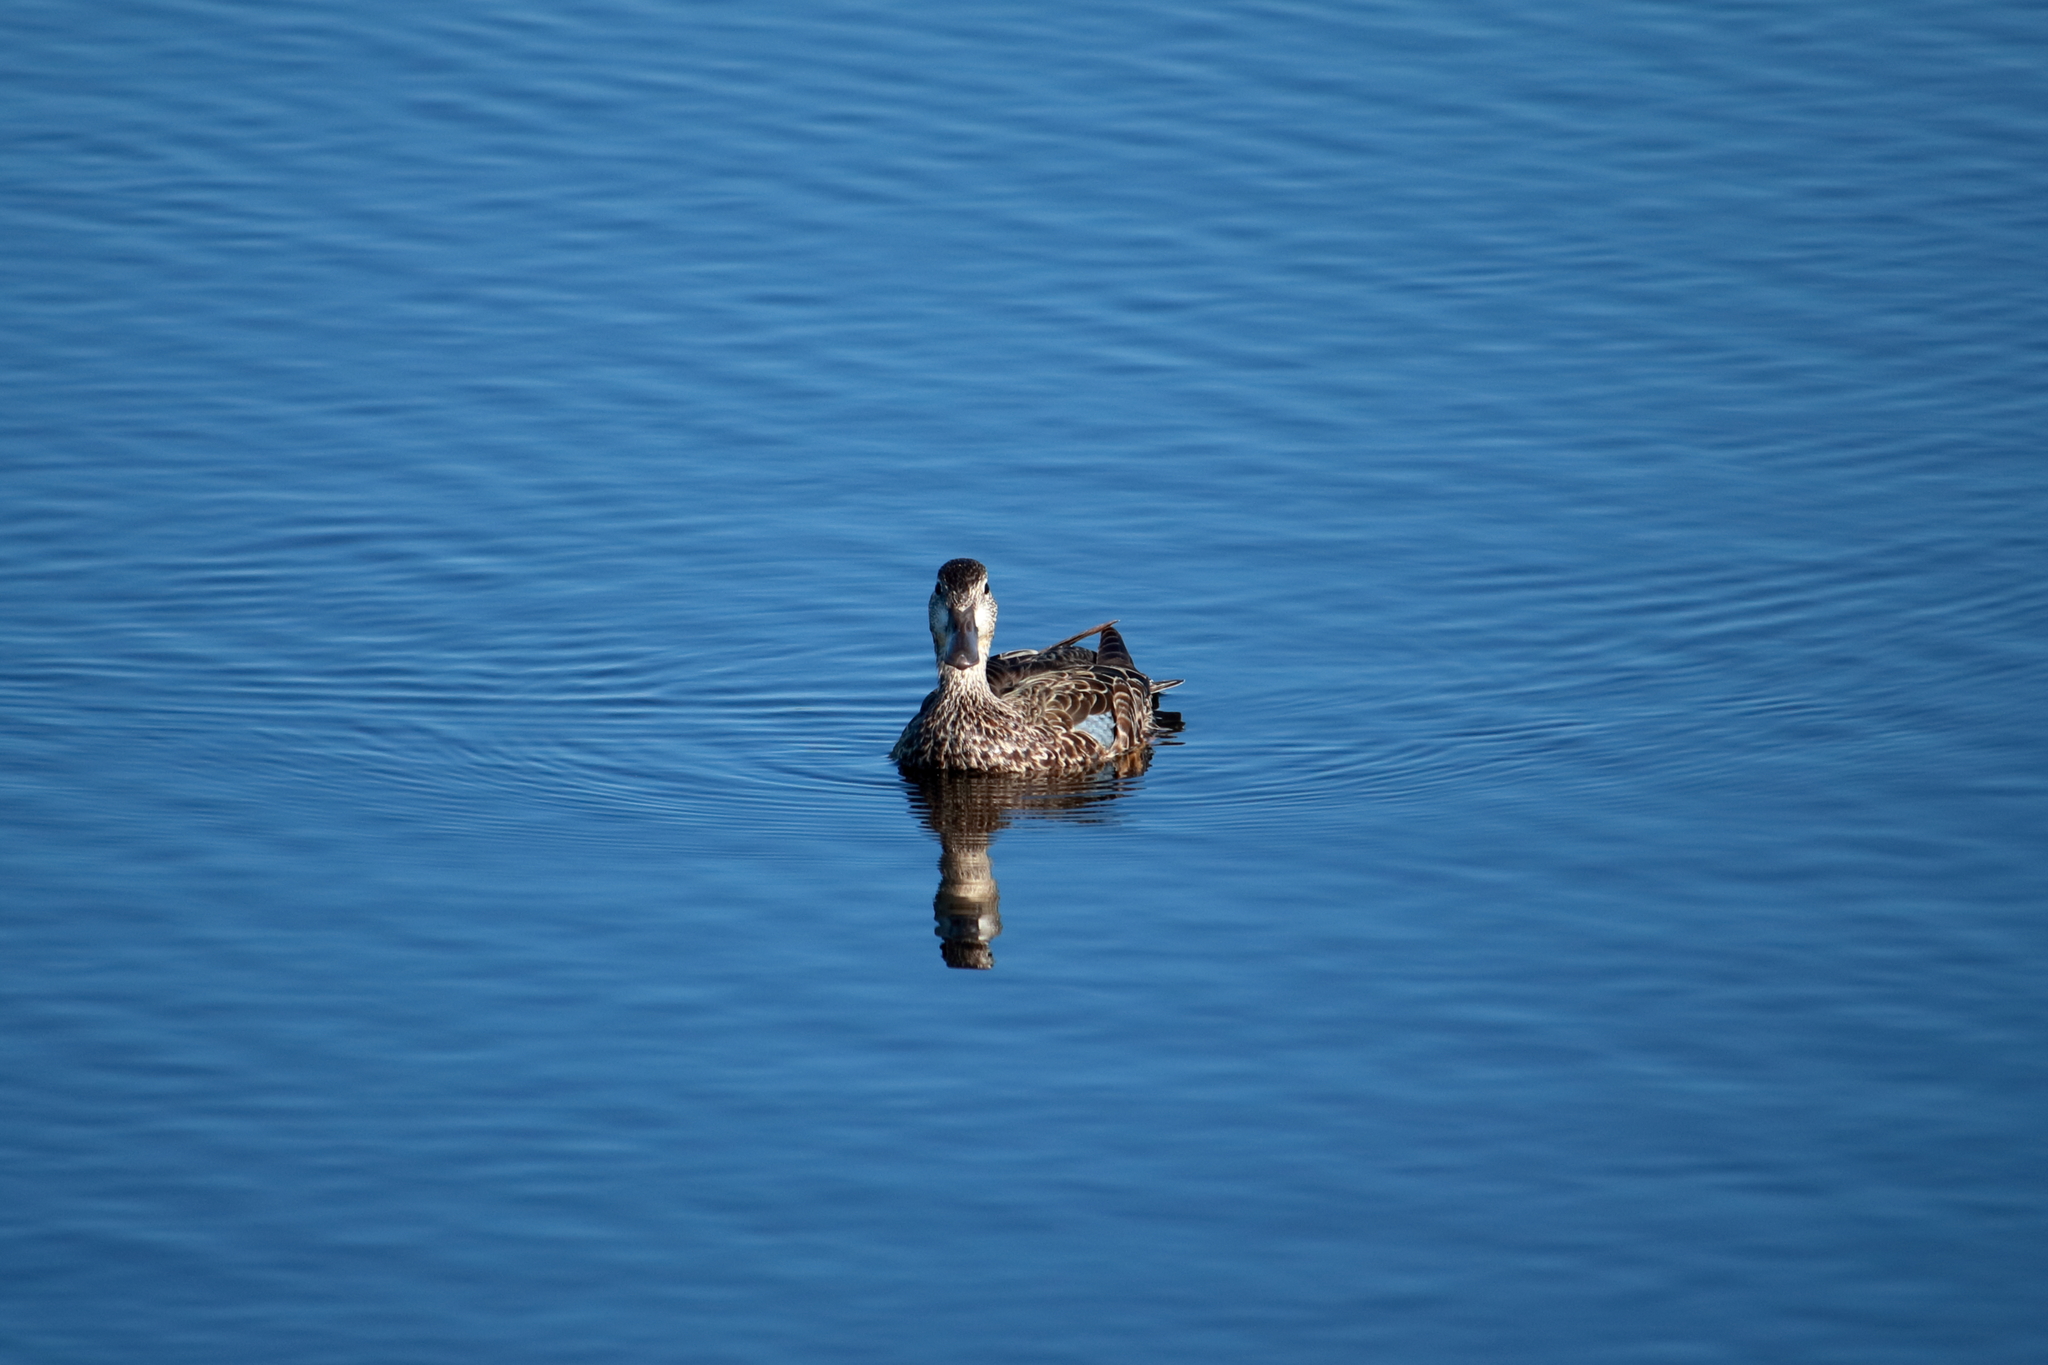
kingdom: Animalia
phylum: Chordata
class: Aves
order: Anseriformes
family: Anatidae
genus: Spatula
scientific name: Spatula discors
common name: Blue-winged teal
